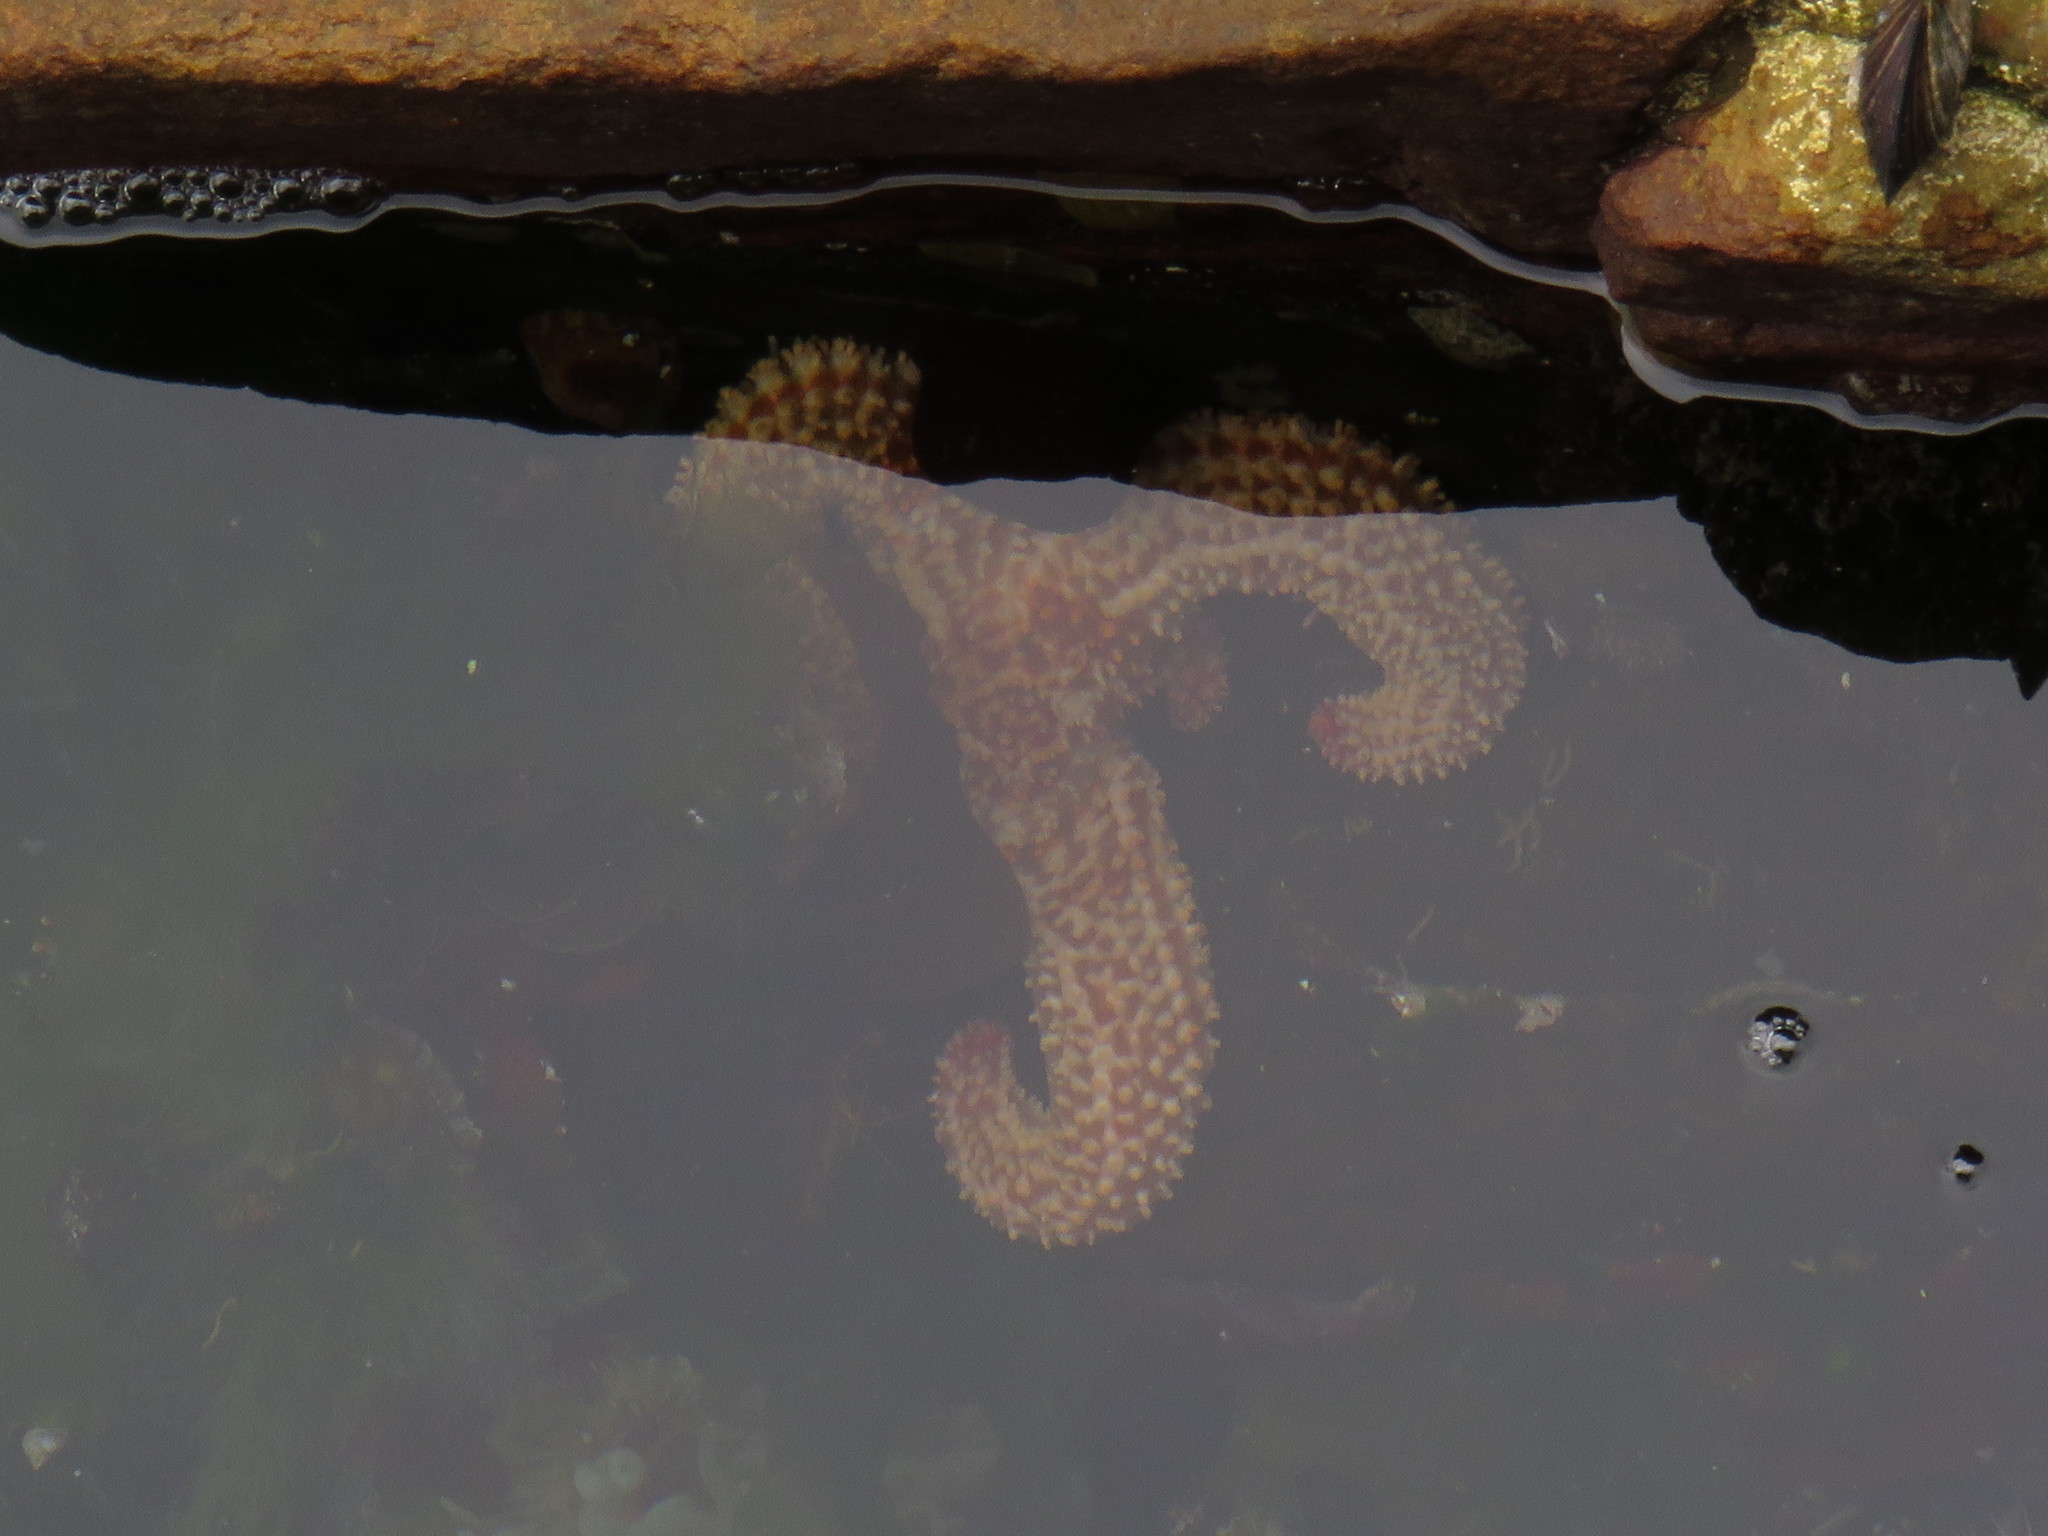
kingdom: Animalia
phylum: Echinodermata
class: Asteroidea
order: Forcipulatida
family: Asteriidae
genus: Marthasterias
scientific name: Marthasterias africana
